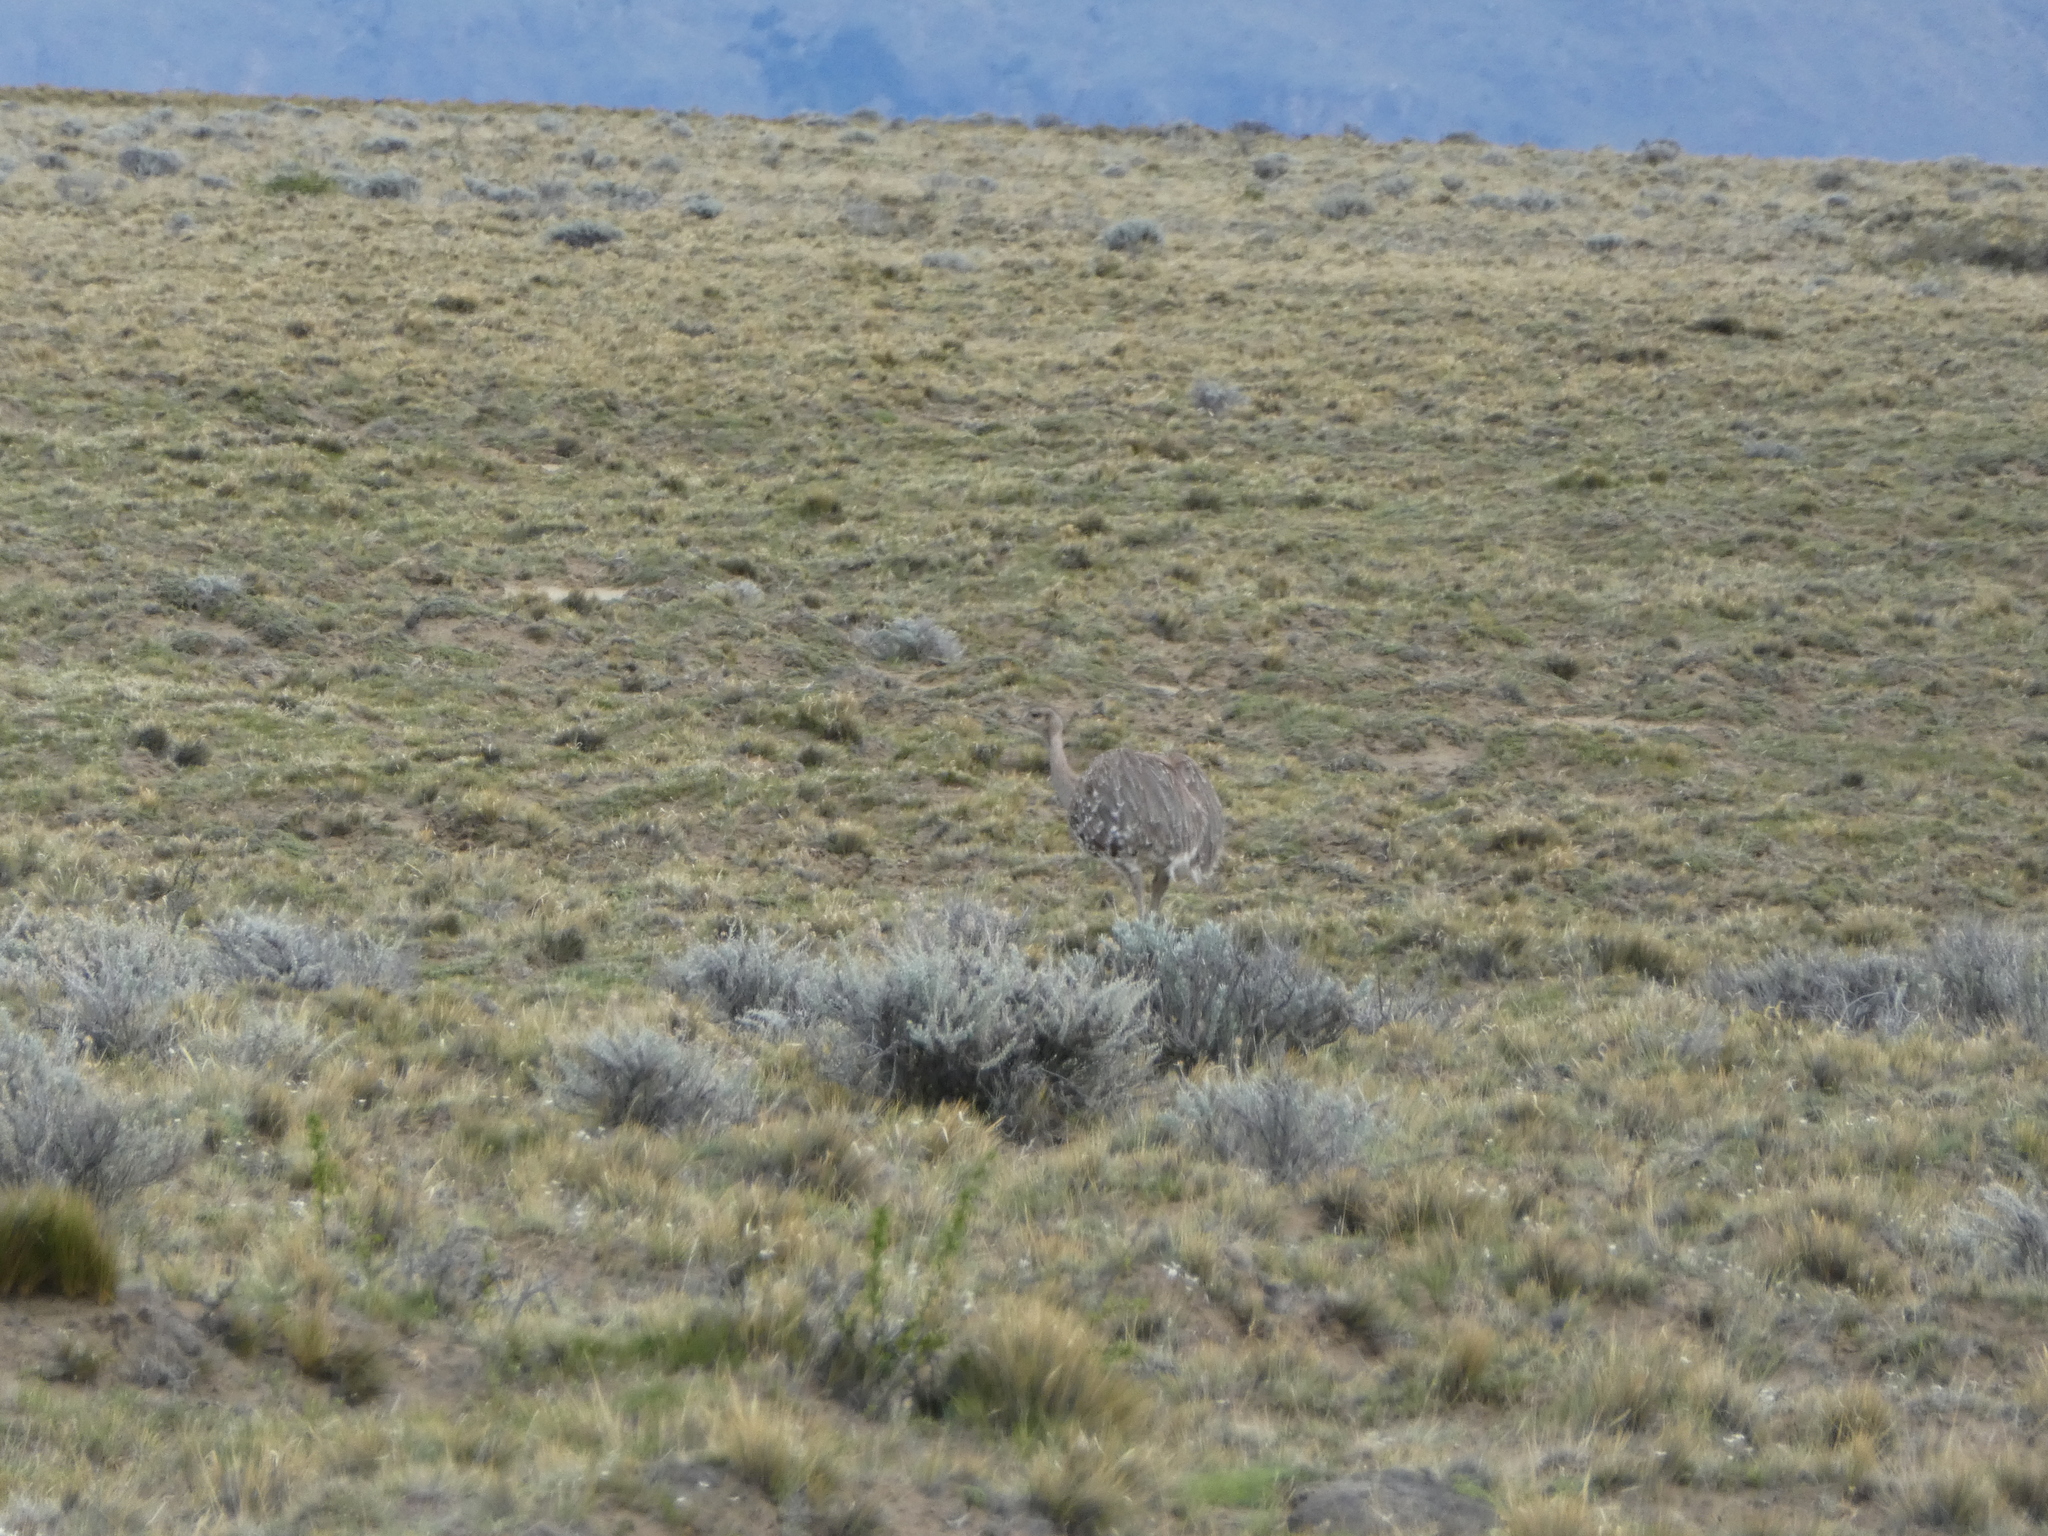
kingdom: Animalia
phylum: Chordata
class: Aves
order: Rheiformes
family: Rheidae
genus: Rhea
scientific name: Rhea pennata
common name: Lesser rhea
